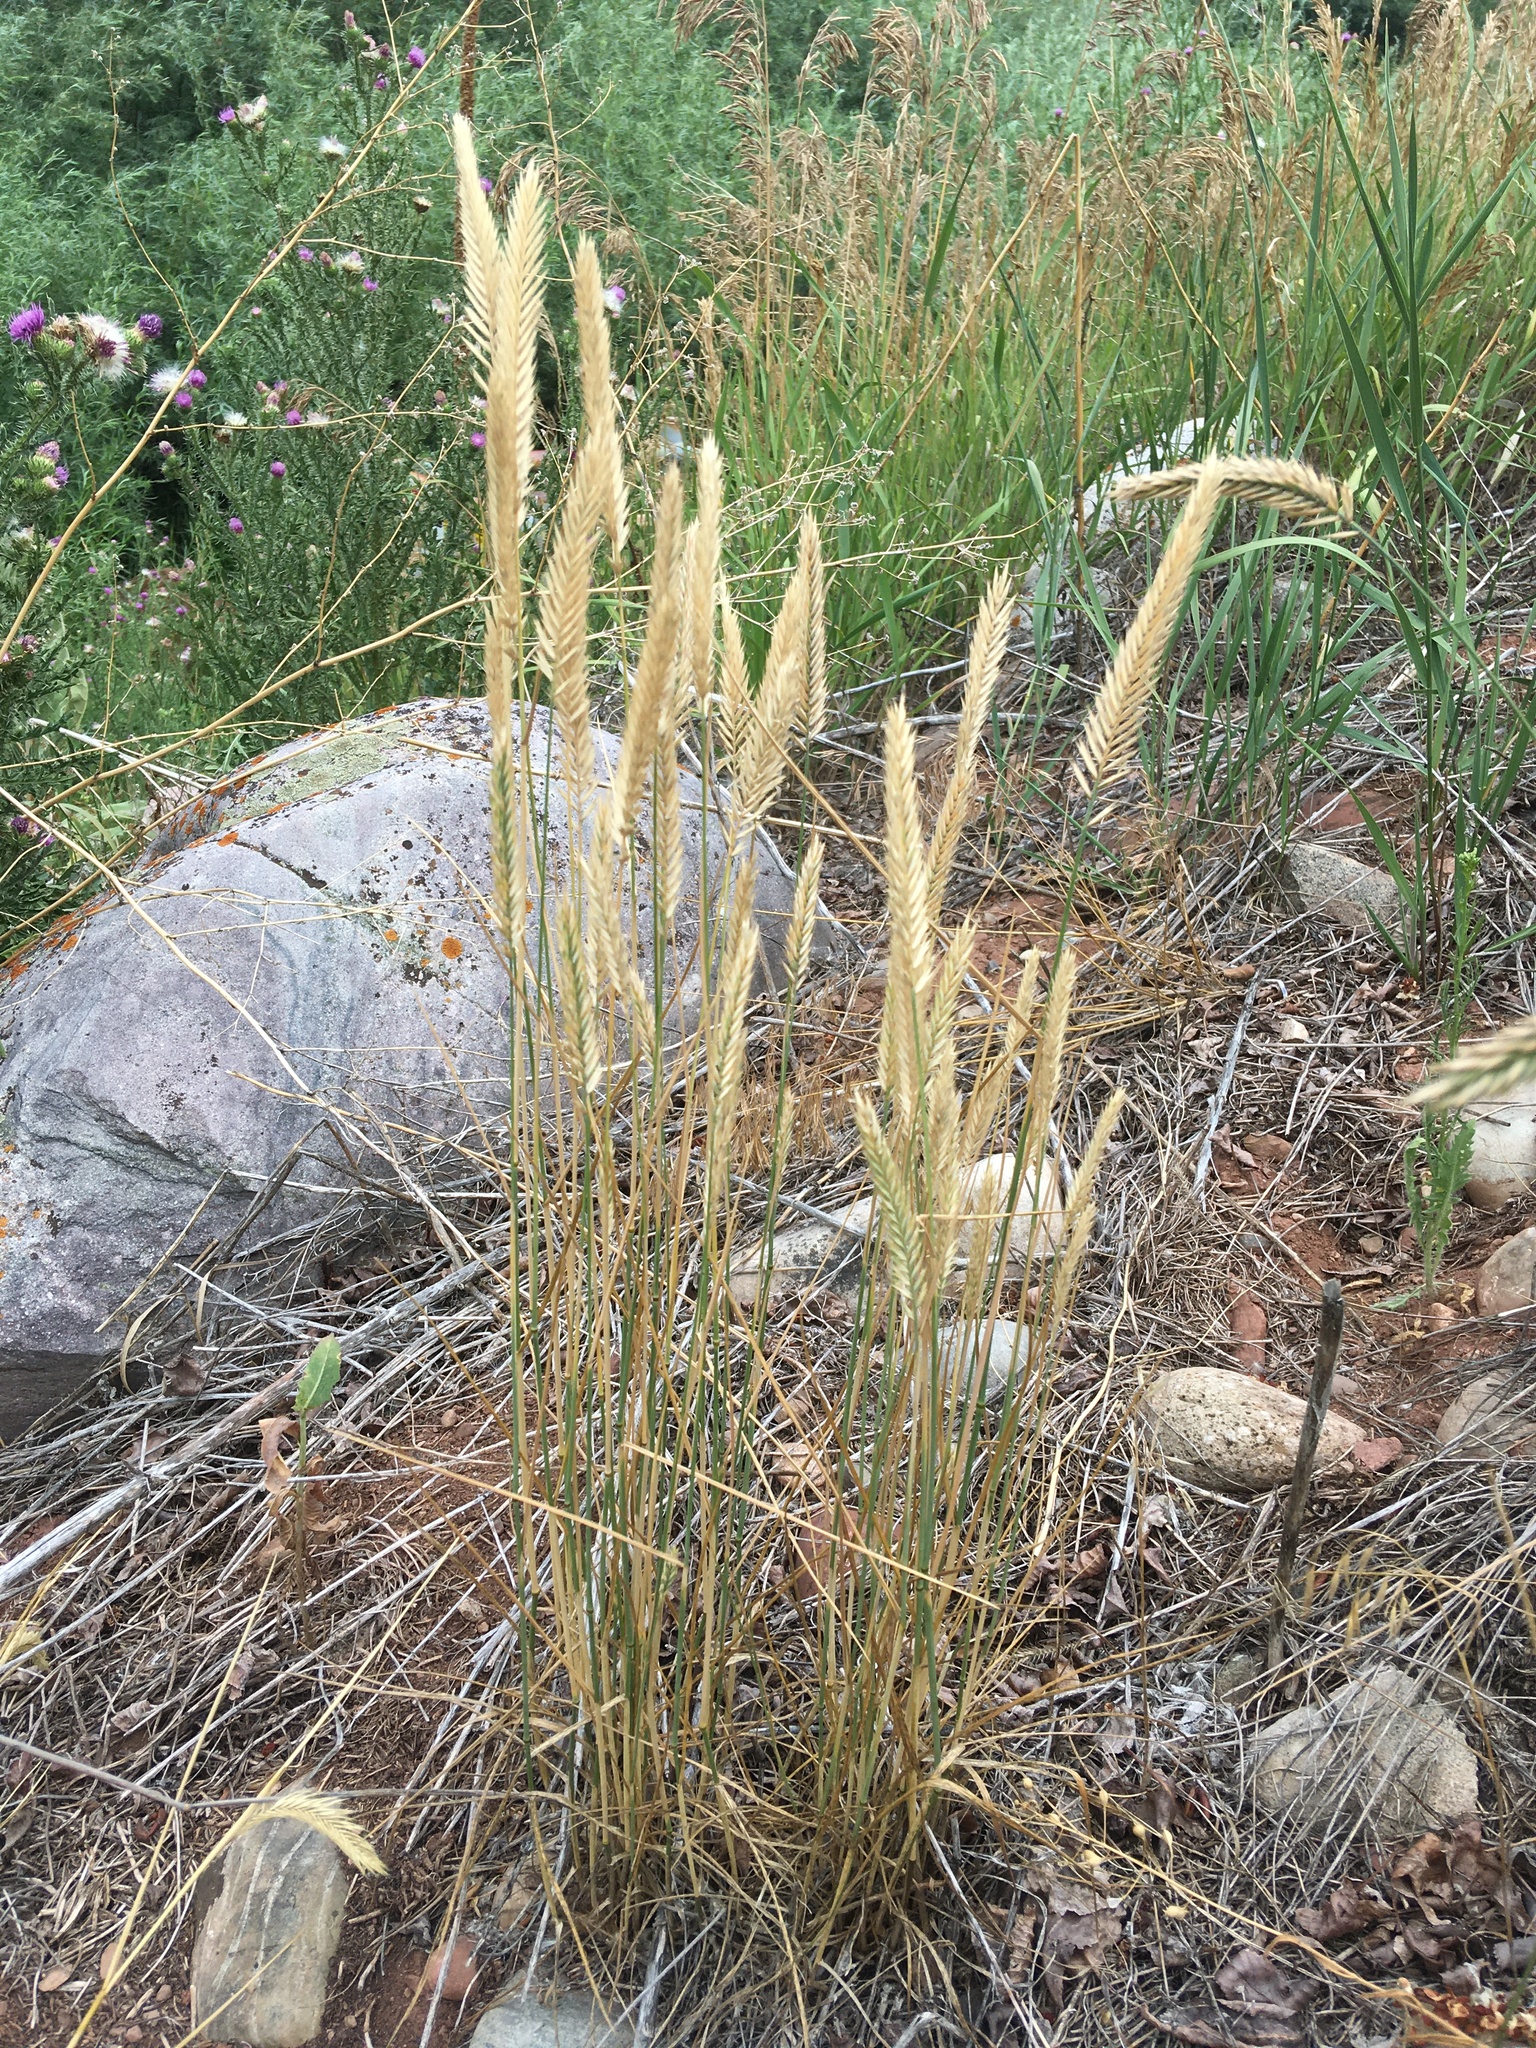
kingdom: Plantae
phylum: Tracheophyta
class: Liliopsida
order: Poales
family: Poaceae
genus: Agropyron
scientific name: Agropyron cristatum
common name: Crested wheatgrass
